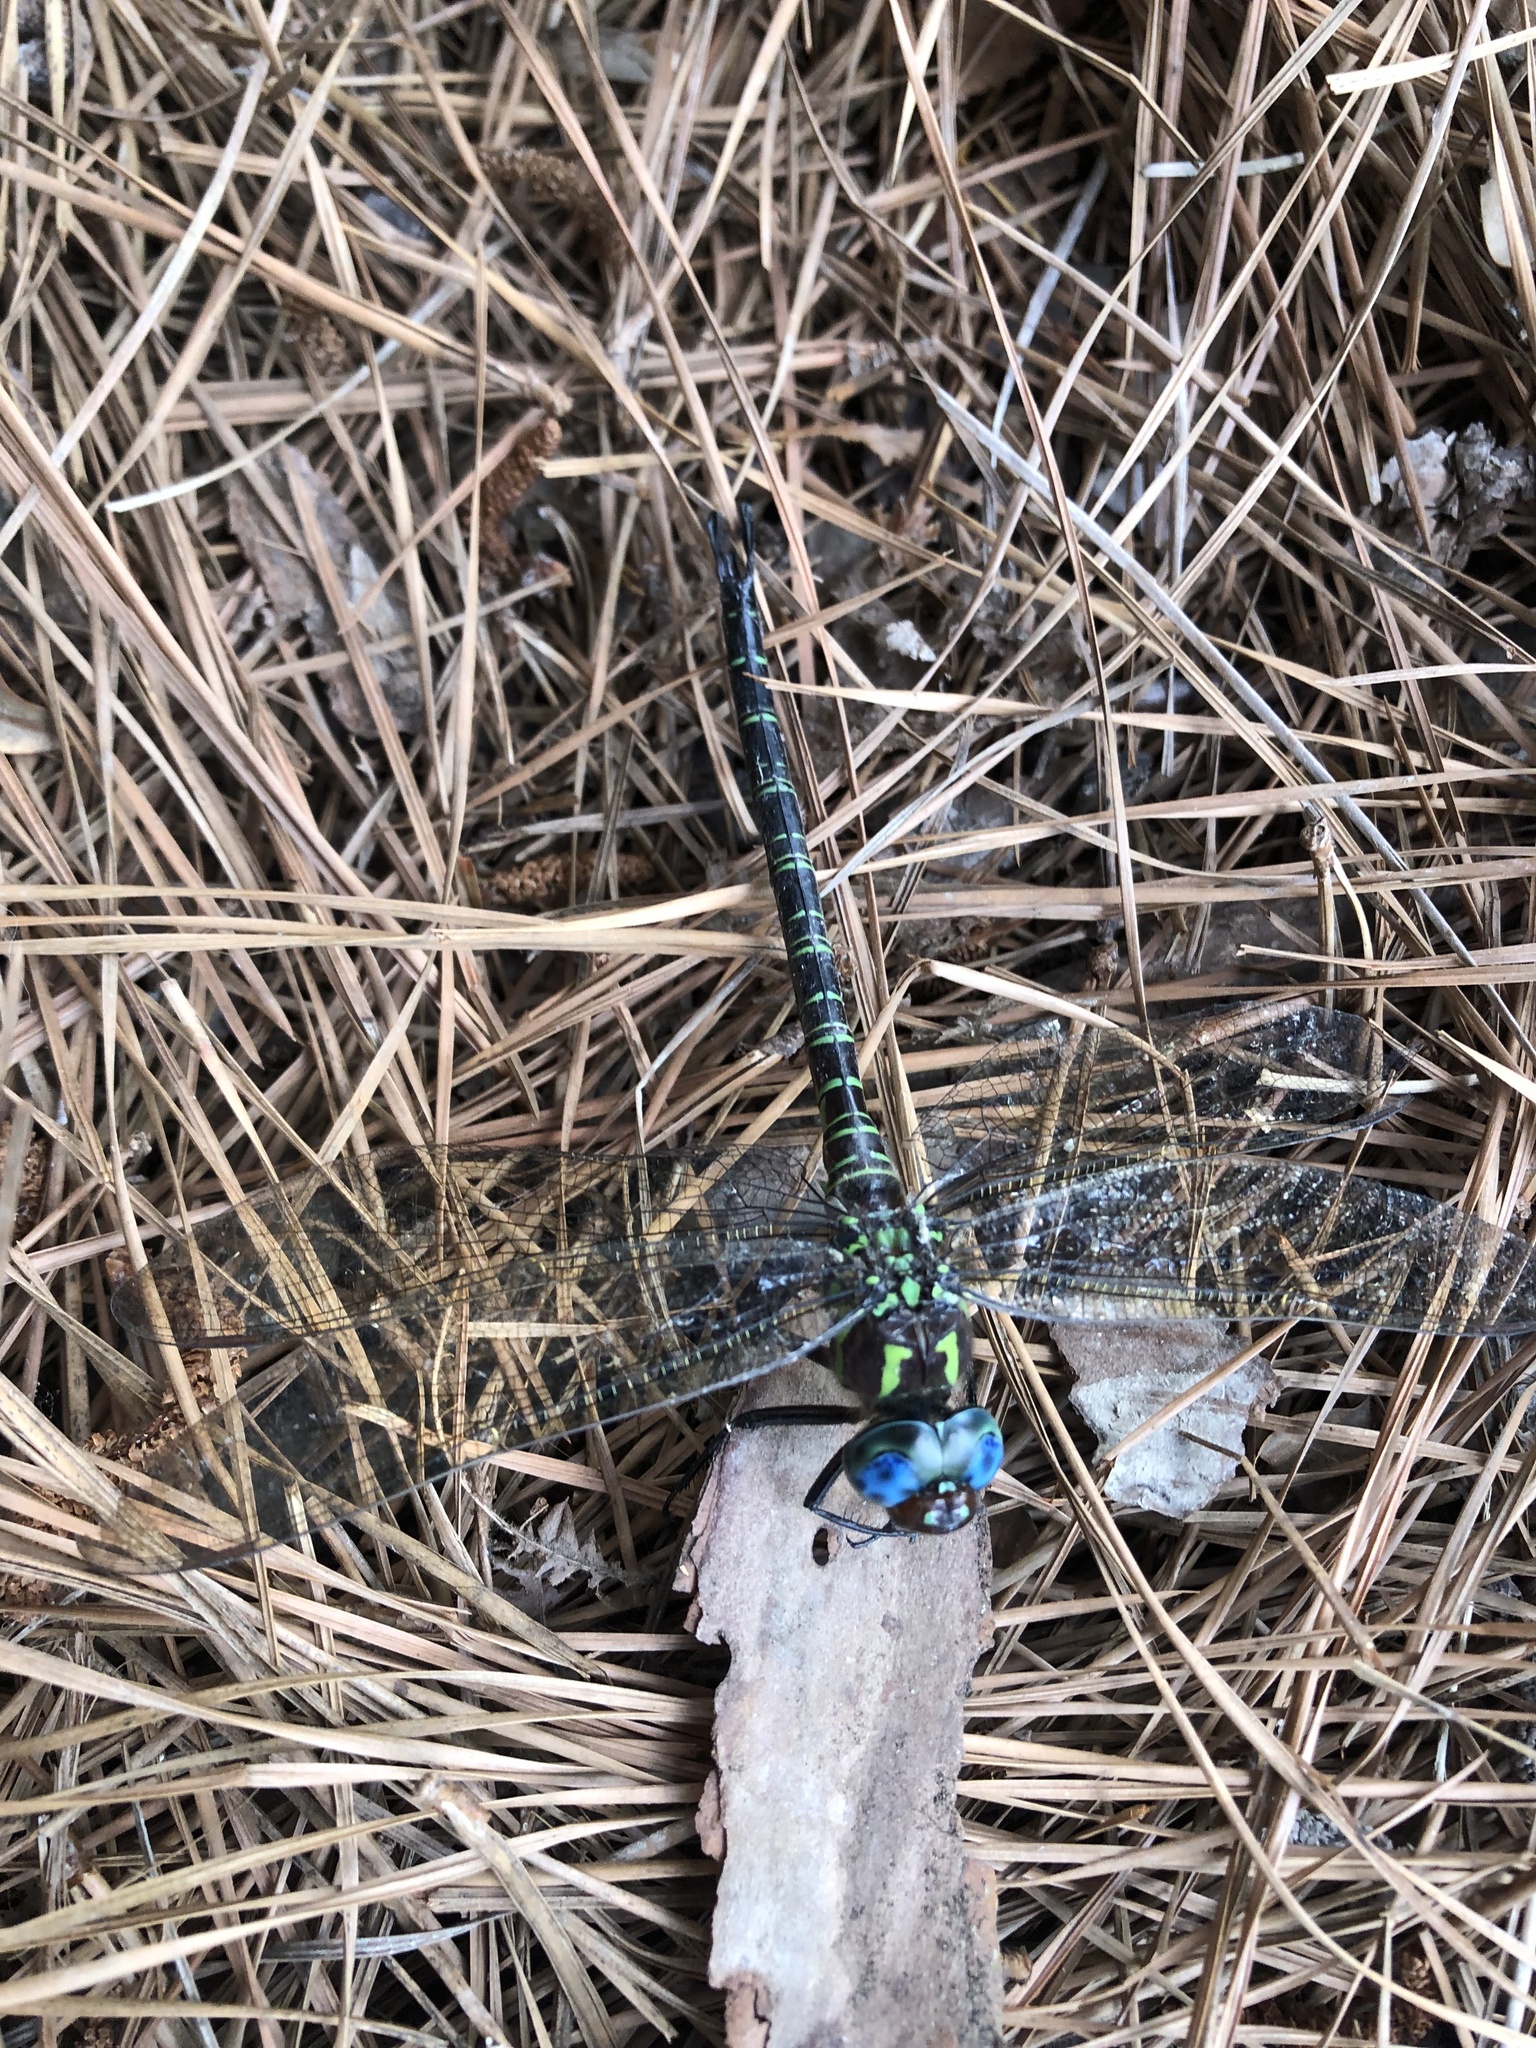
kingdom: Animalia
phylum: Arthropoda
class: Insecta
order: Odonata
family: Aeshnidae
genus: Epiaeschna
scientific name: Epiaeschna heros
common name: Swamp darner
